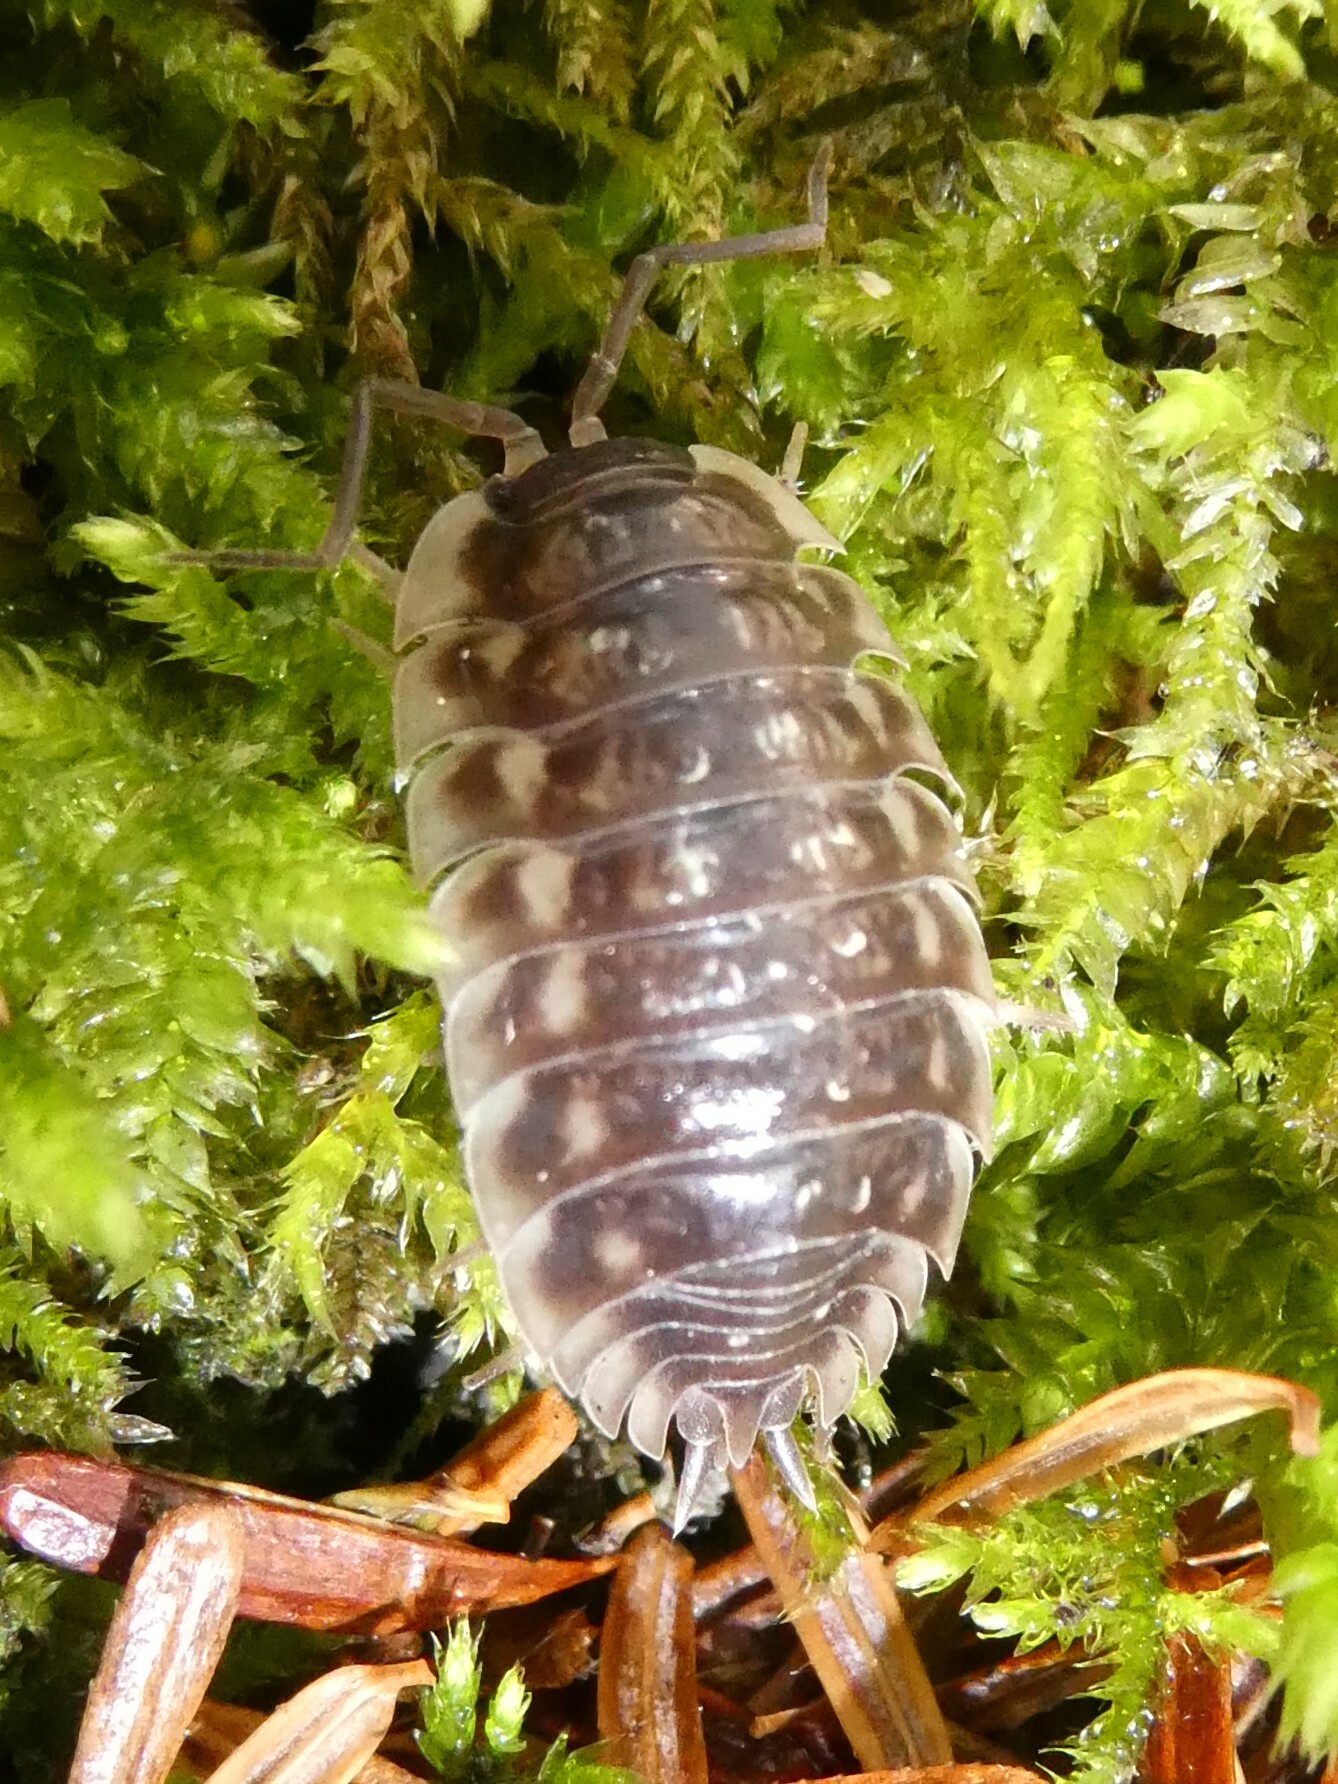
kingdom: Animalia
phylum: Arthropoda
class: Malacostraca
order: Isopoda
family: Oniscidae
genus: Oniscus
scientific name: Oniscus asellus
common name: Common shiny woodlouse
